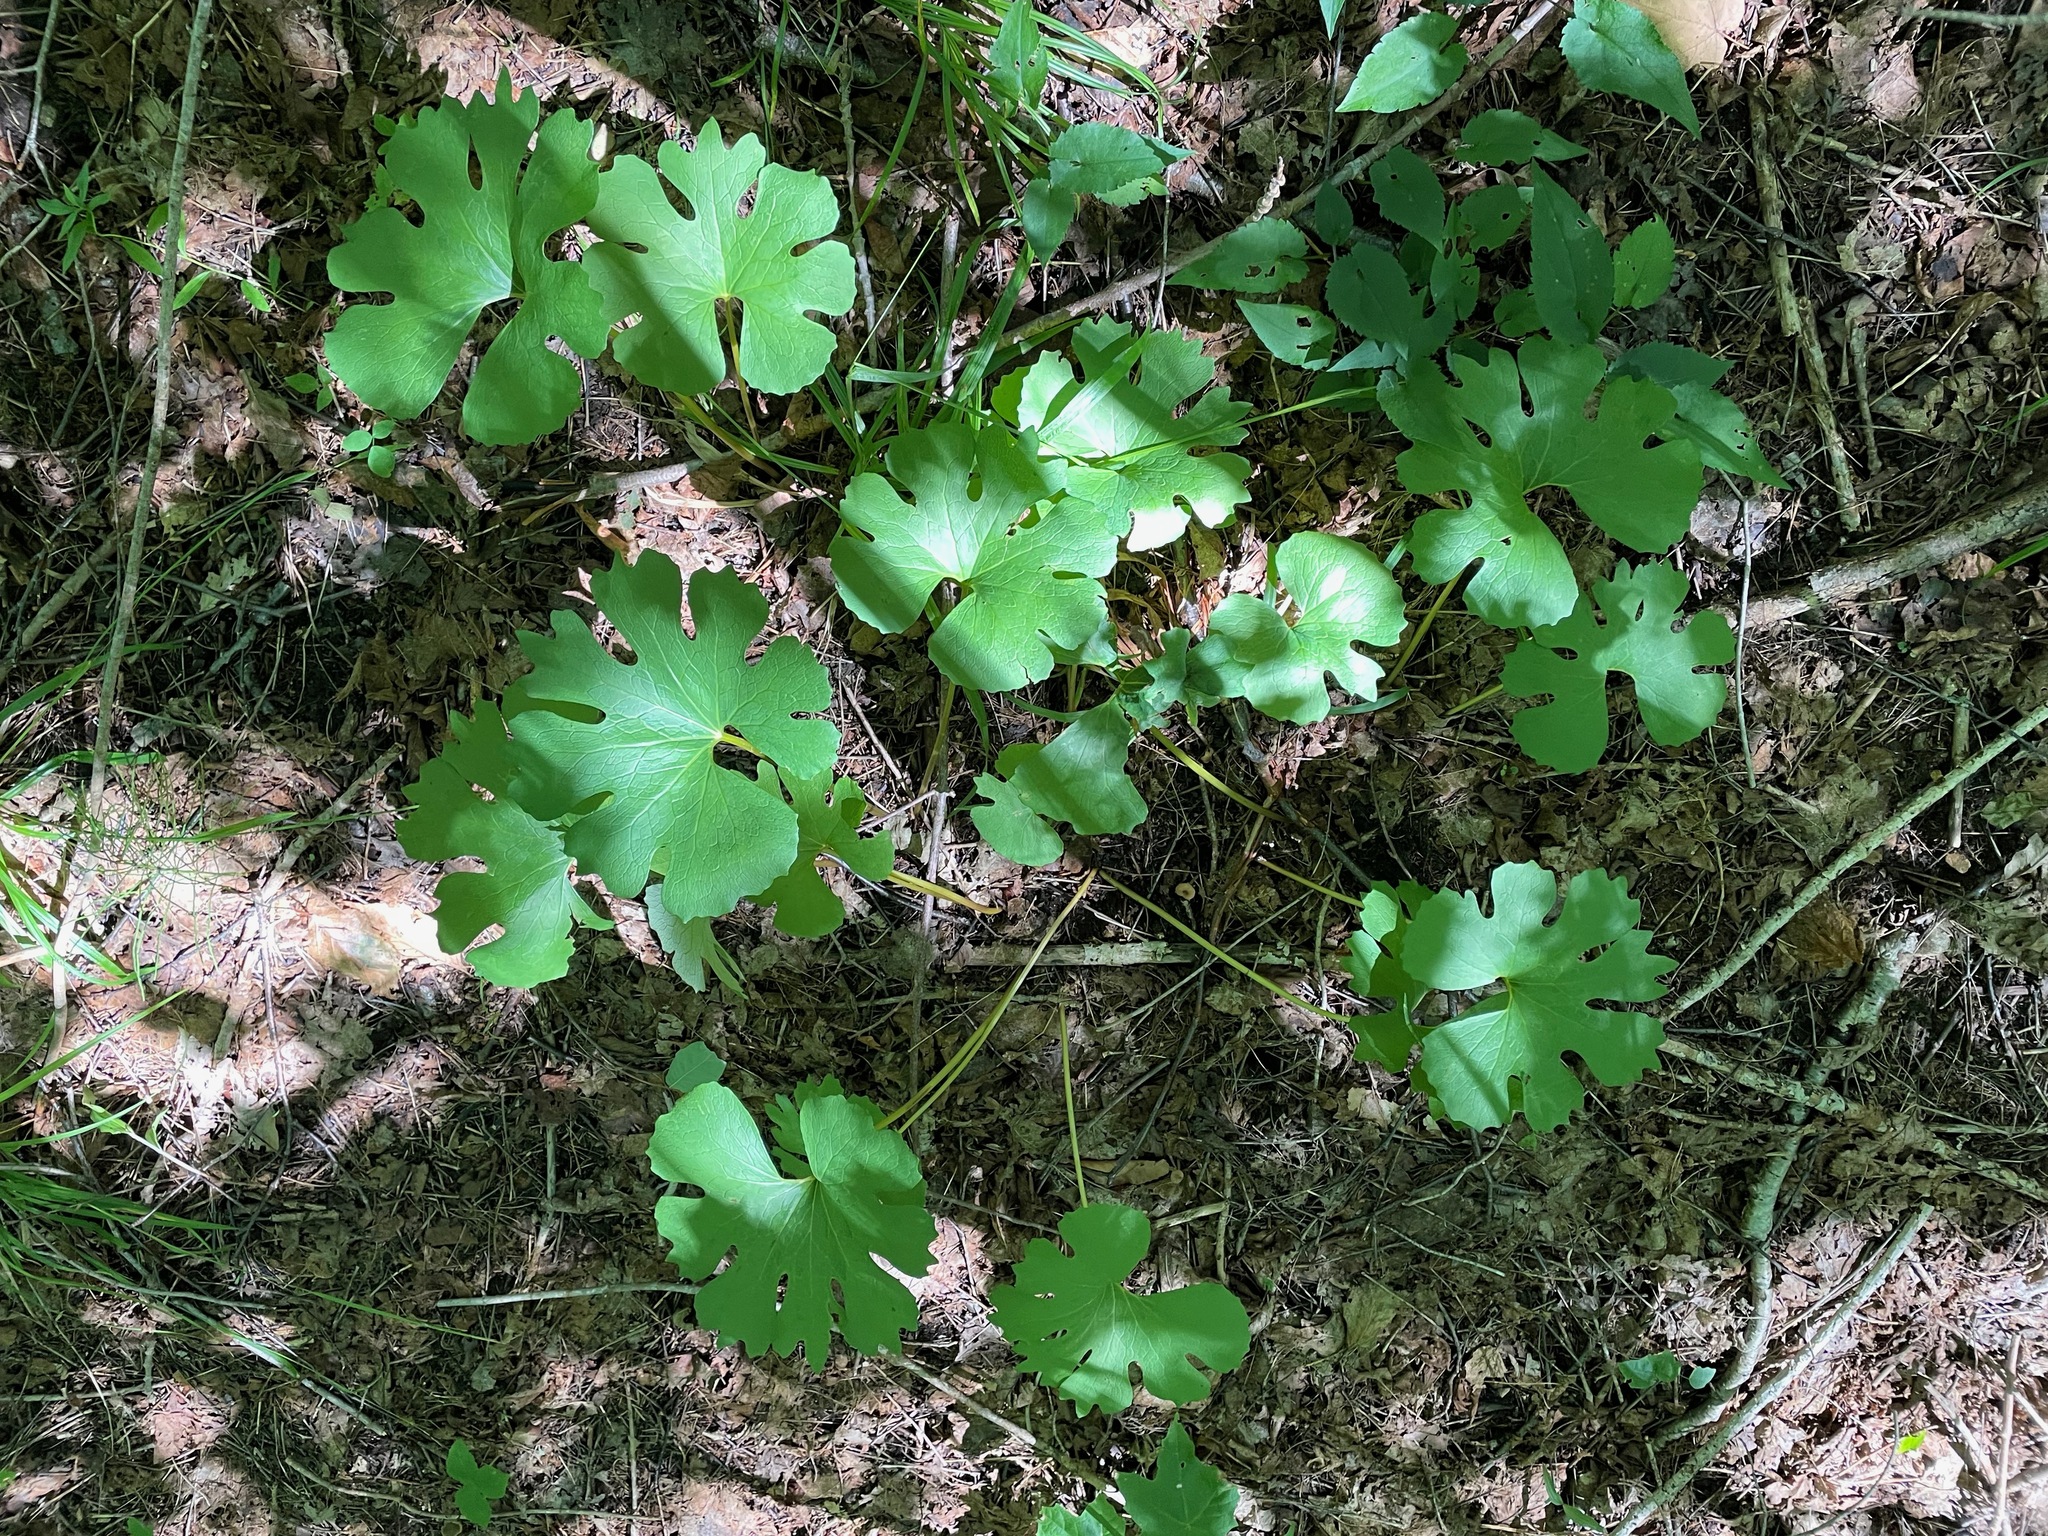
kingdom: Plantae
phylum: Tracheophyta
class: Magnoliopsida
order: Ranunculales
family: Papaveraceae
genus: Sanguinaria
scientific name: Sanguinaria canadensis
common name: Bloodroot
